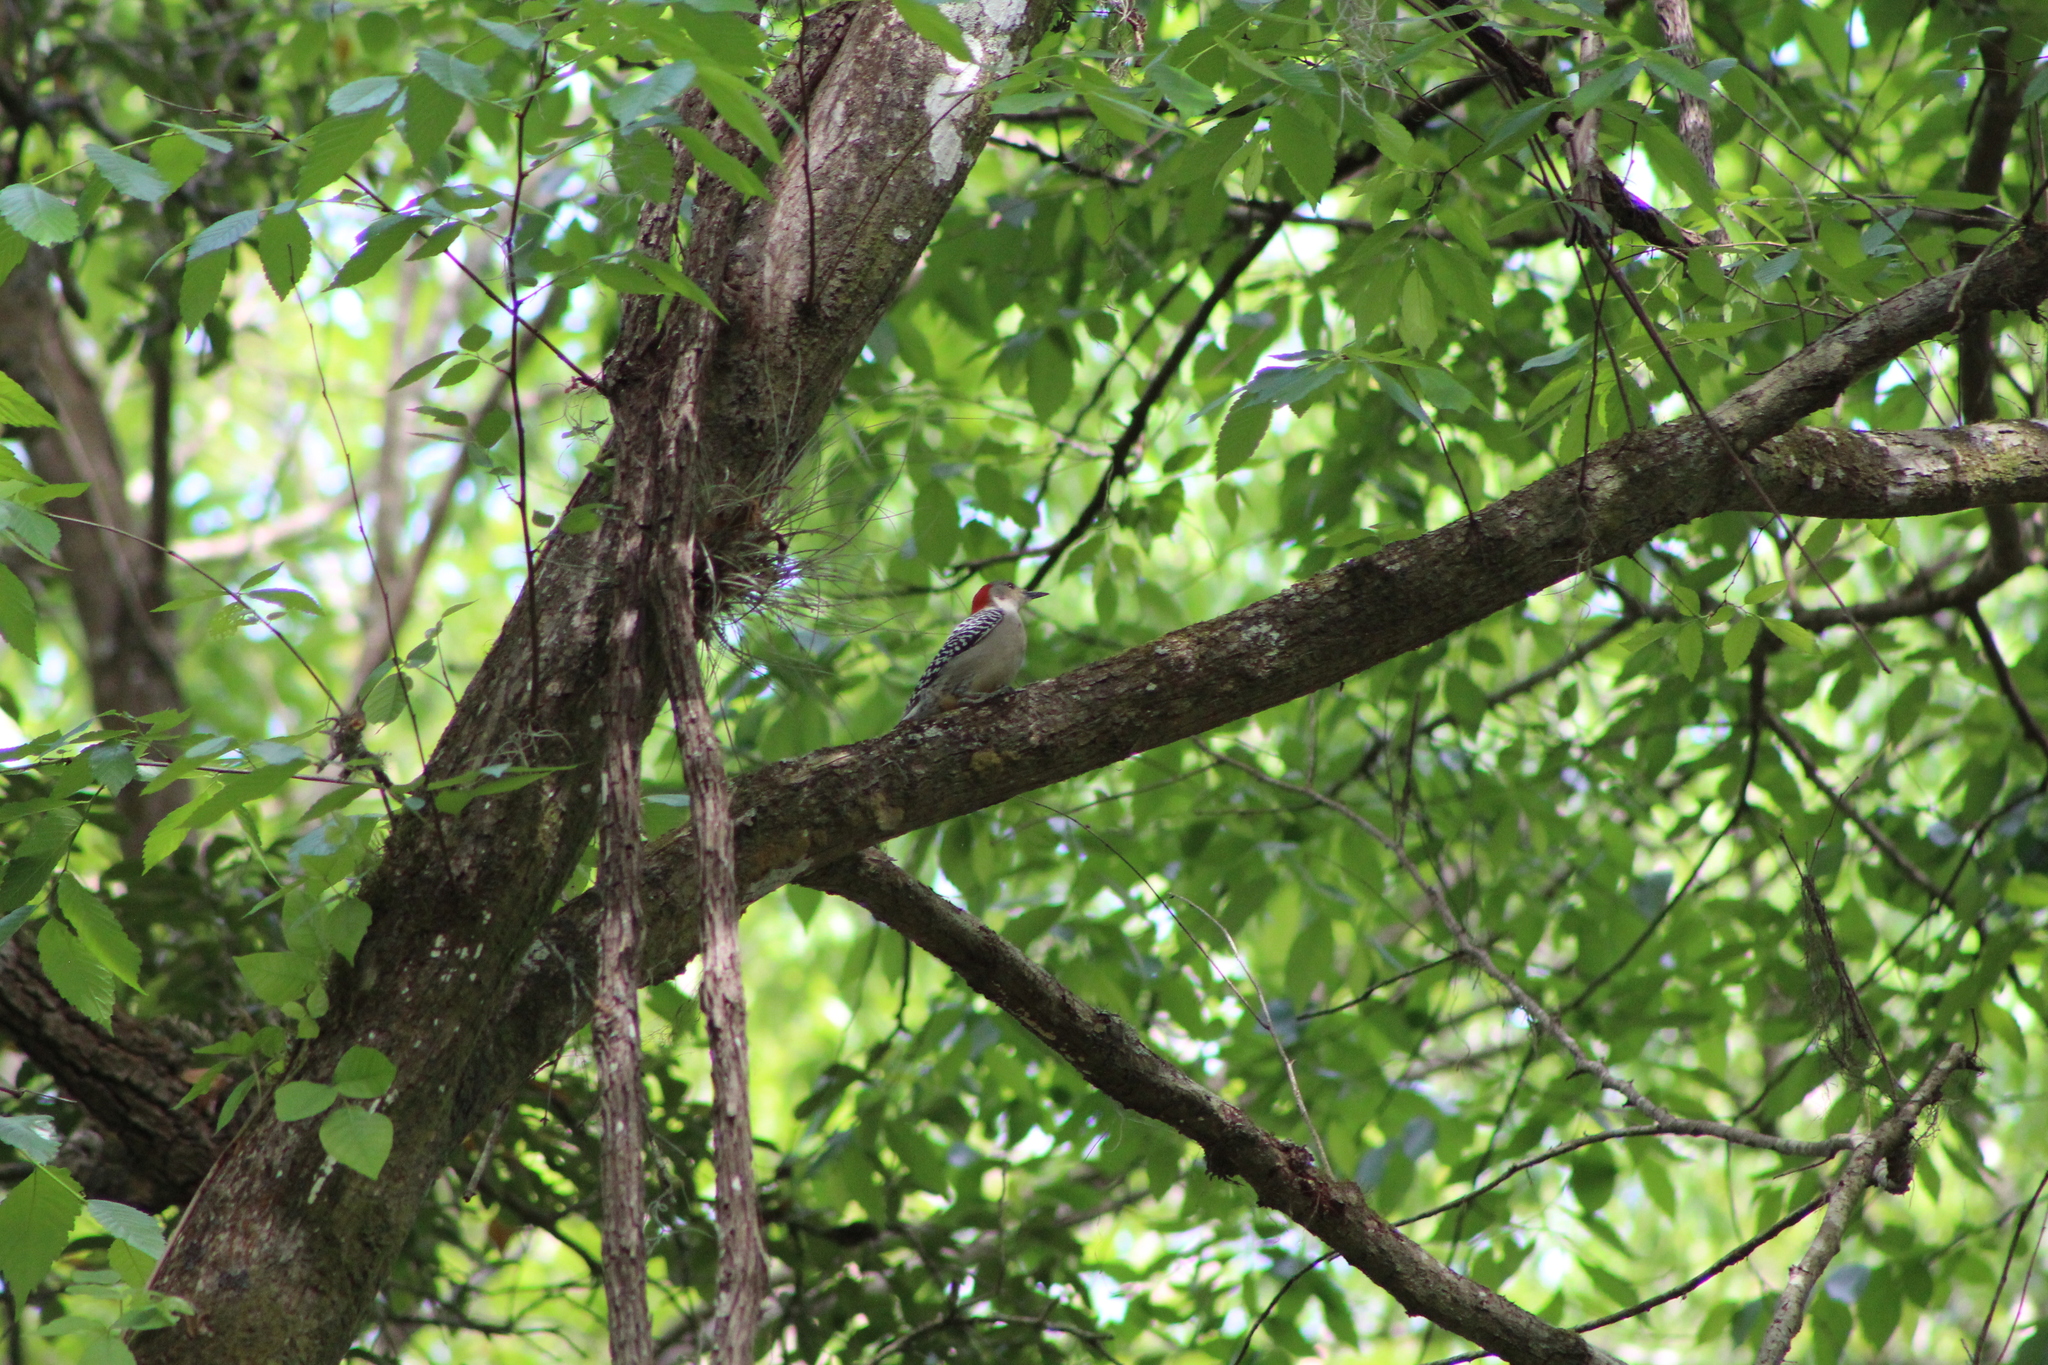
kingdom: Animalia
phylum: Chordata
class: Aves
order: Piciformes
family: Picidae
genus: Melanerpes
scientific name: Melanerpes carolinus
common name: Red-bellied woodpecker
